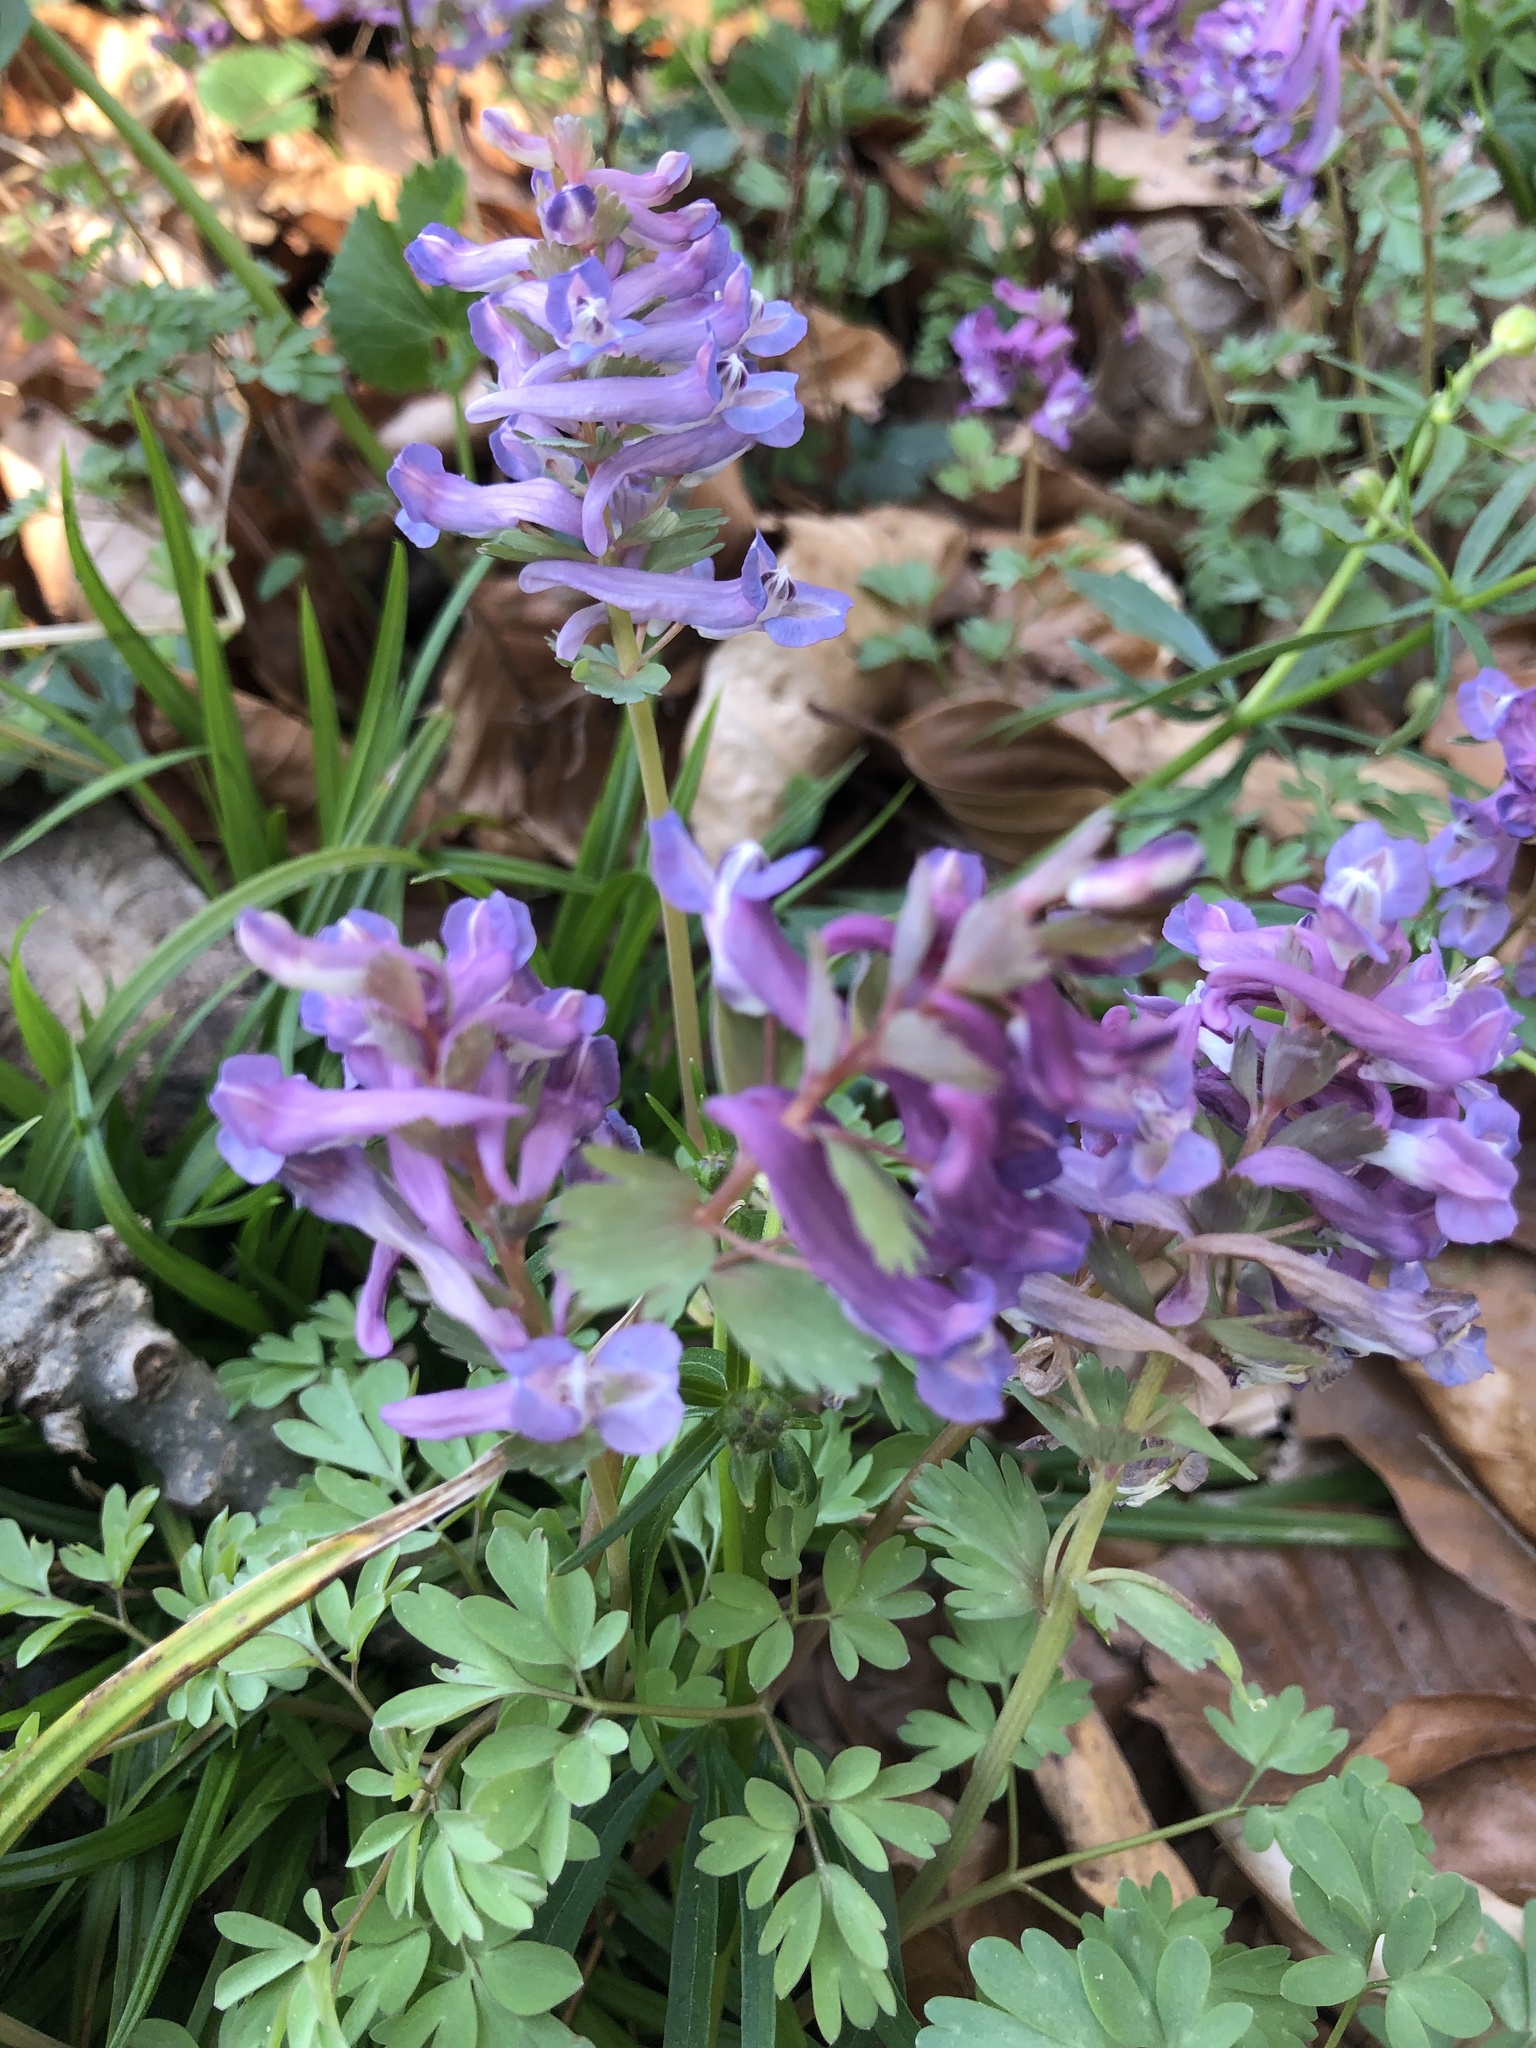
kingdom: Plantae
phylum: Tracheophyta
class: Magnoliopsida
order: Ranunculales
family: Papaveraceae
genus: Corydalis
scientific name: Corydalis solida
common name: Bird-in-a-bush
